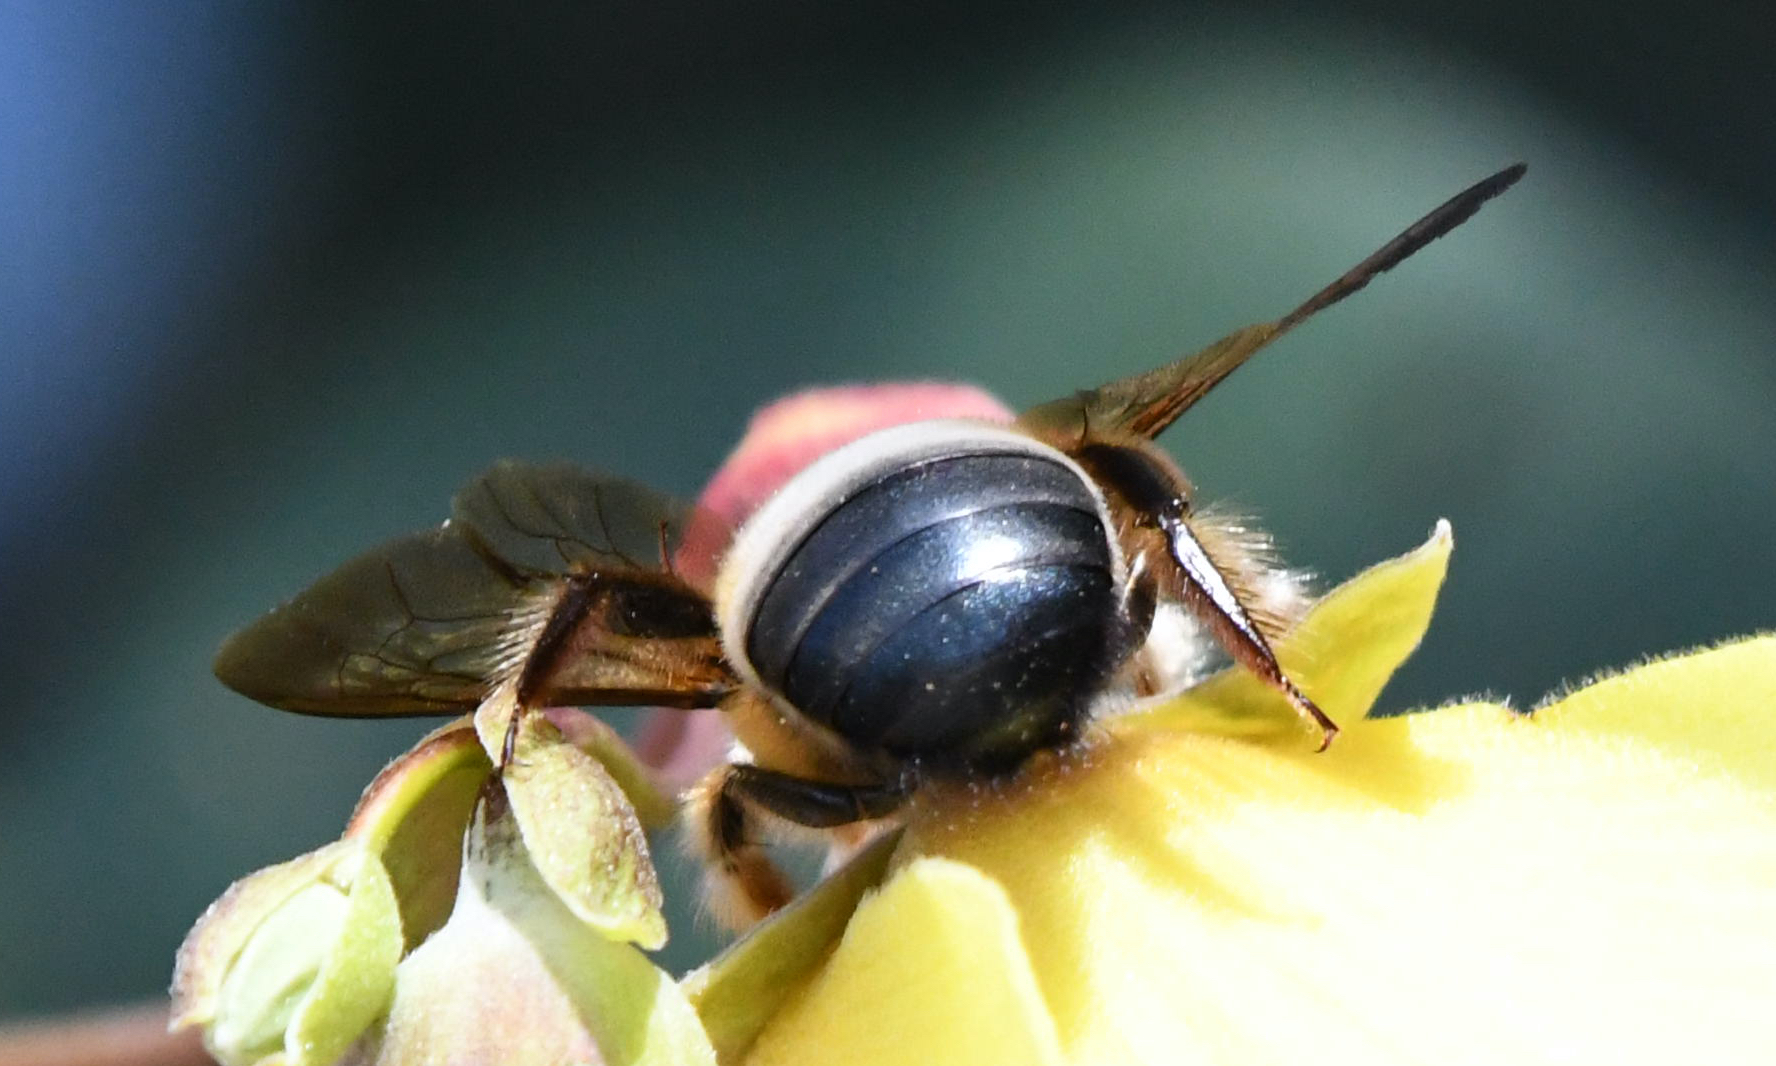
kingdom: Animalia
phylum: Arthropoda
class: Insecta
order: Hymenoptera
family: Apidae
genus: Xylocopa
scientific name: Xylocopa dejeanii
